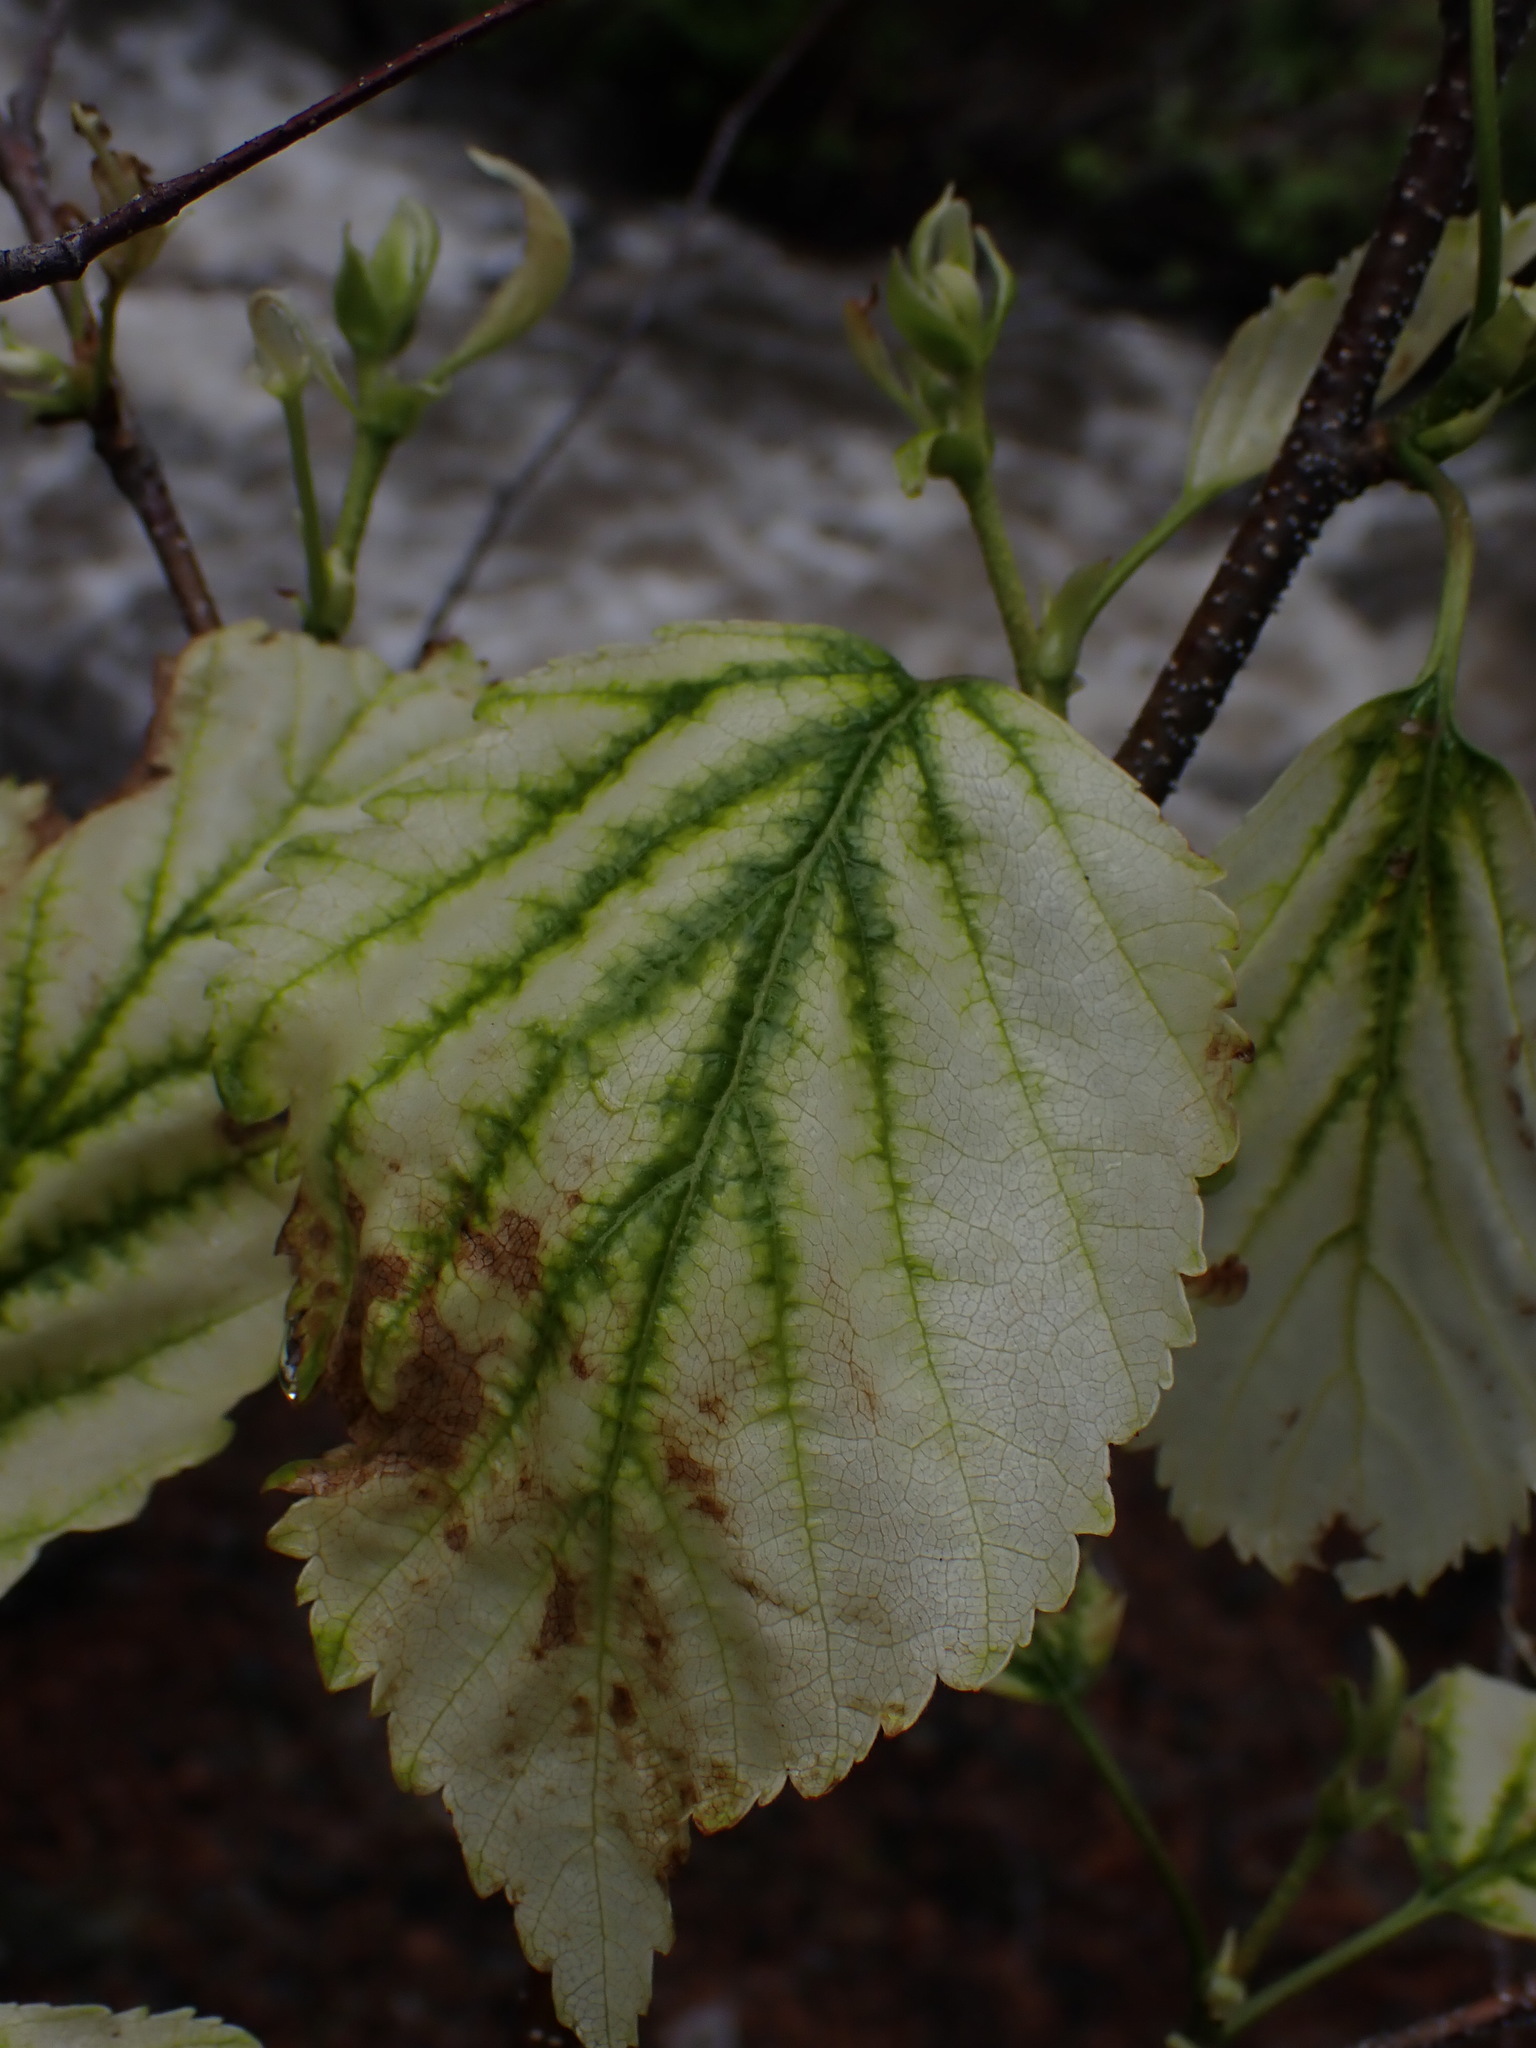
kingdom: Plantae
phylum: Tracheophyta
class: Magnoliopsida
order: Fagales
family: Betulaceae
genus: Betula
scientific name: Betula papyrifera
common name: Paper birch
